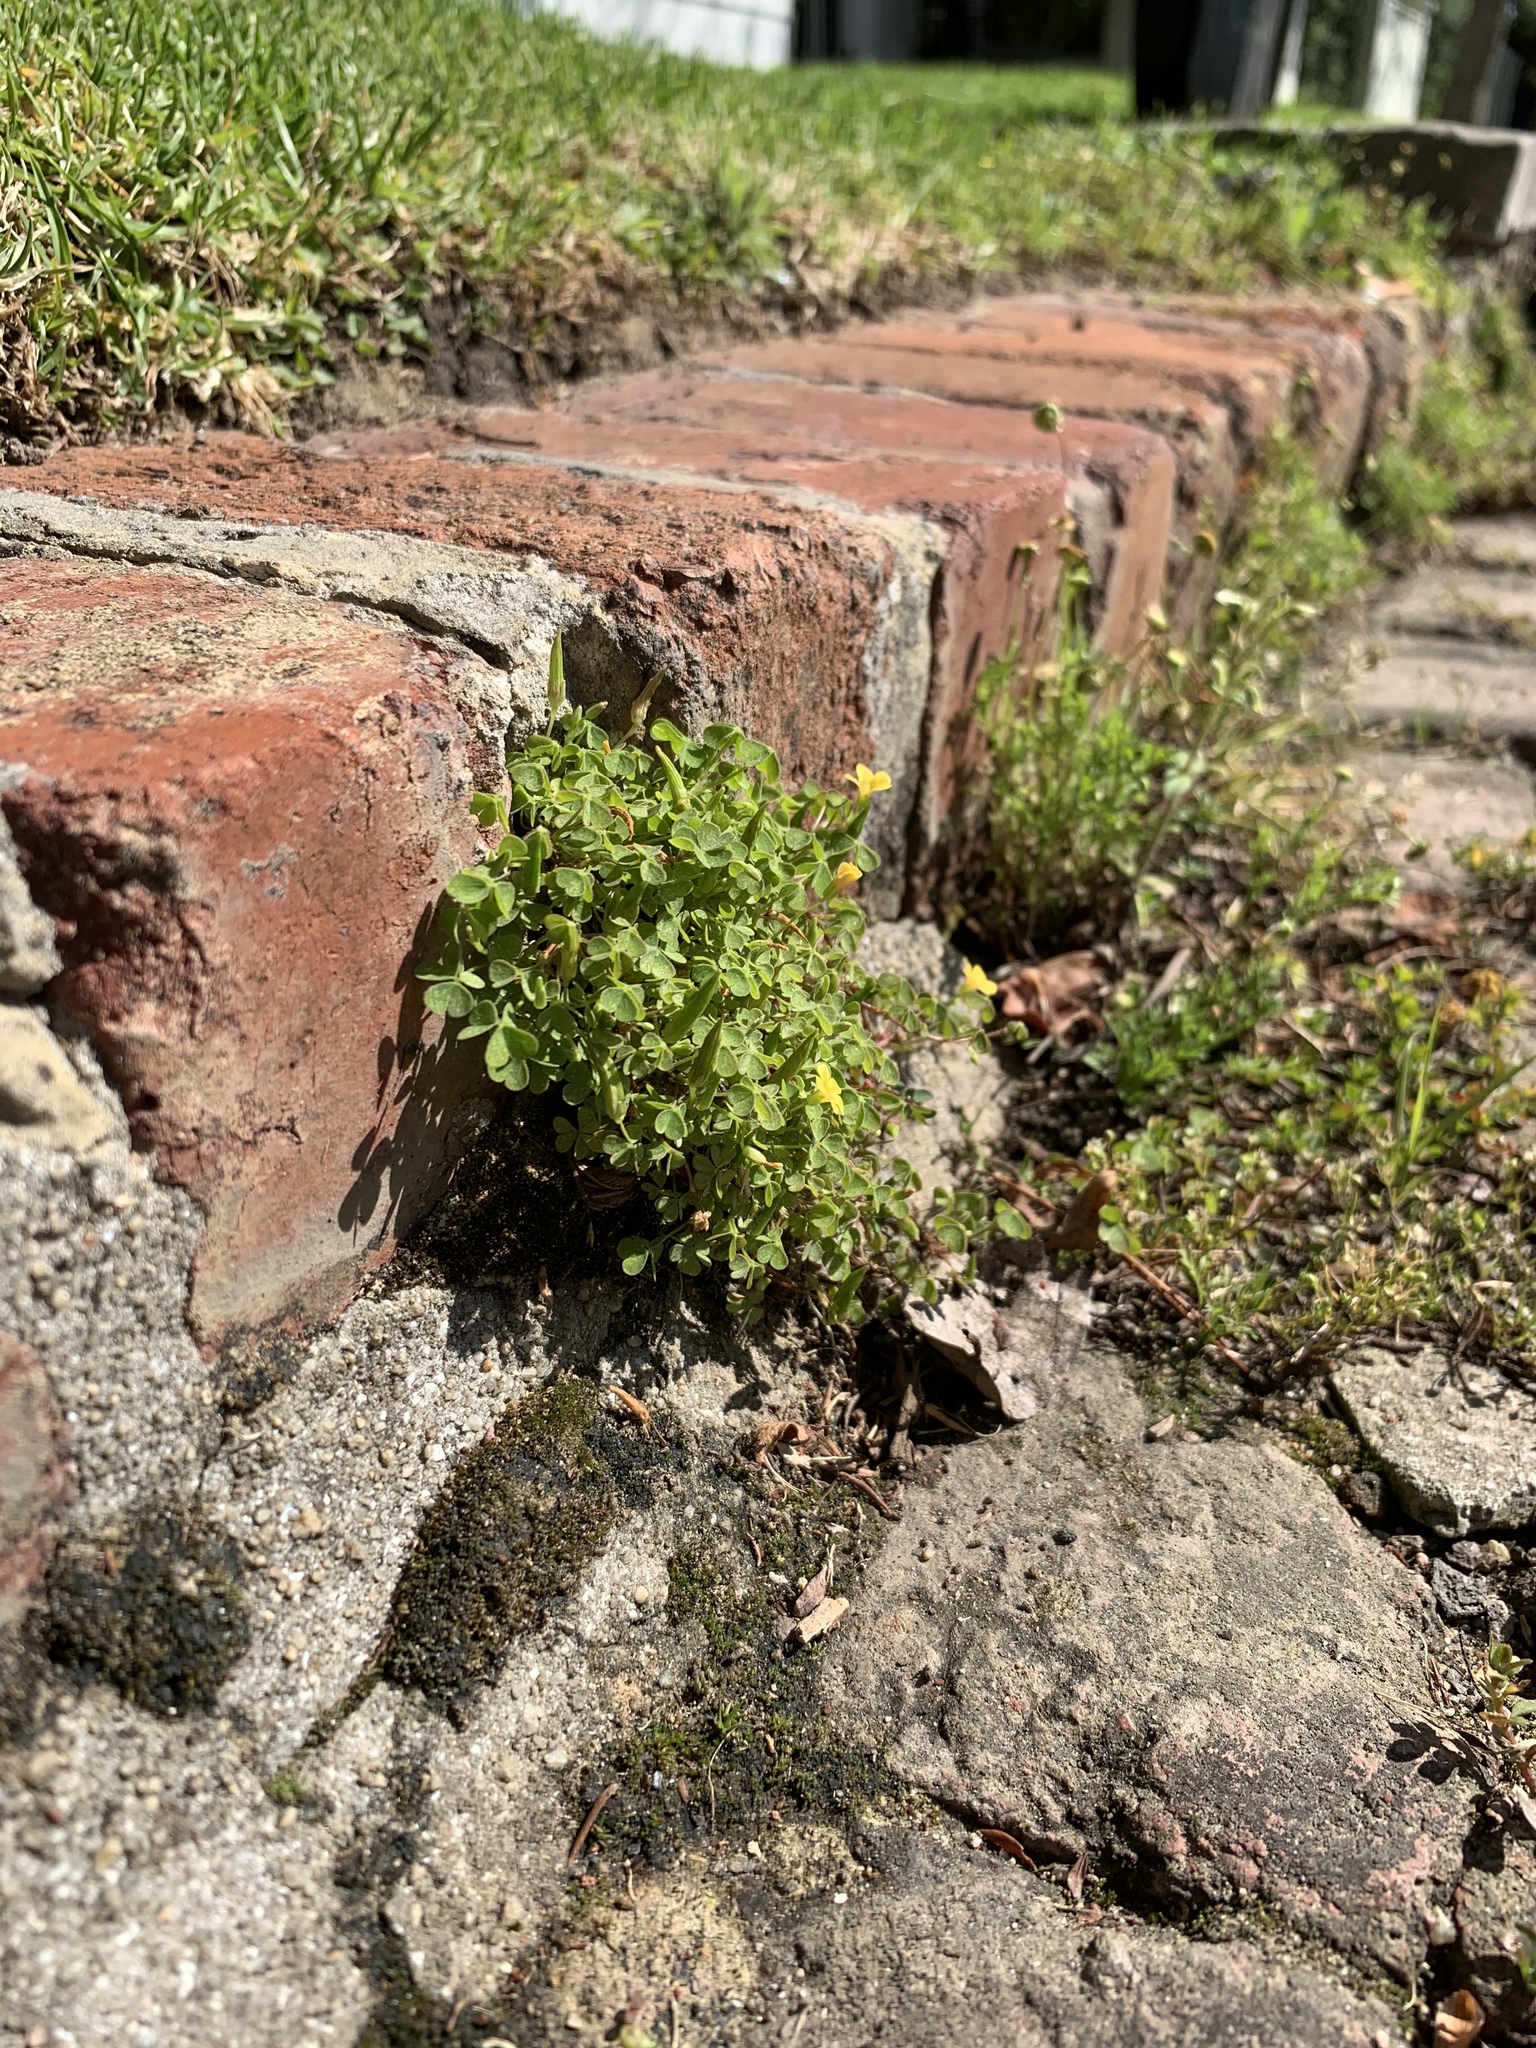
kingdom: Plantae
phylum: Tracheophyta
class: Magnoliopsida
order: Oxalidales
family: Oxalidaceae
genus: Oxalis
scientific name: Oxalis corniculata
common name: Procumbent yellow-sorrel
